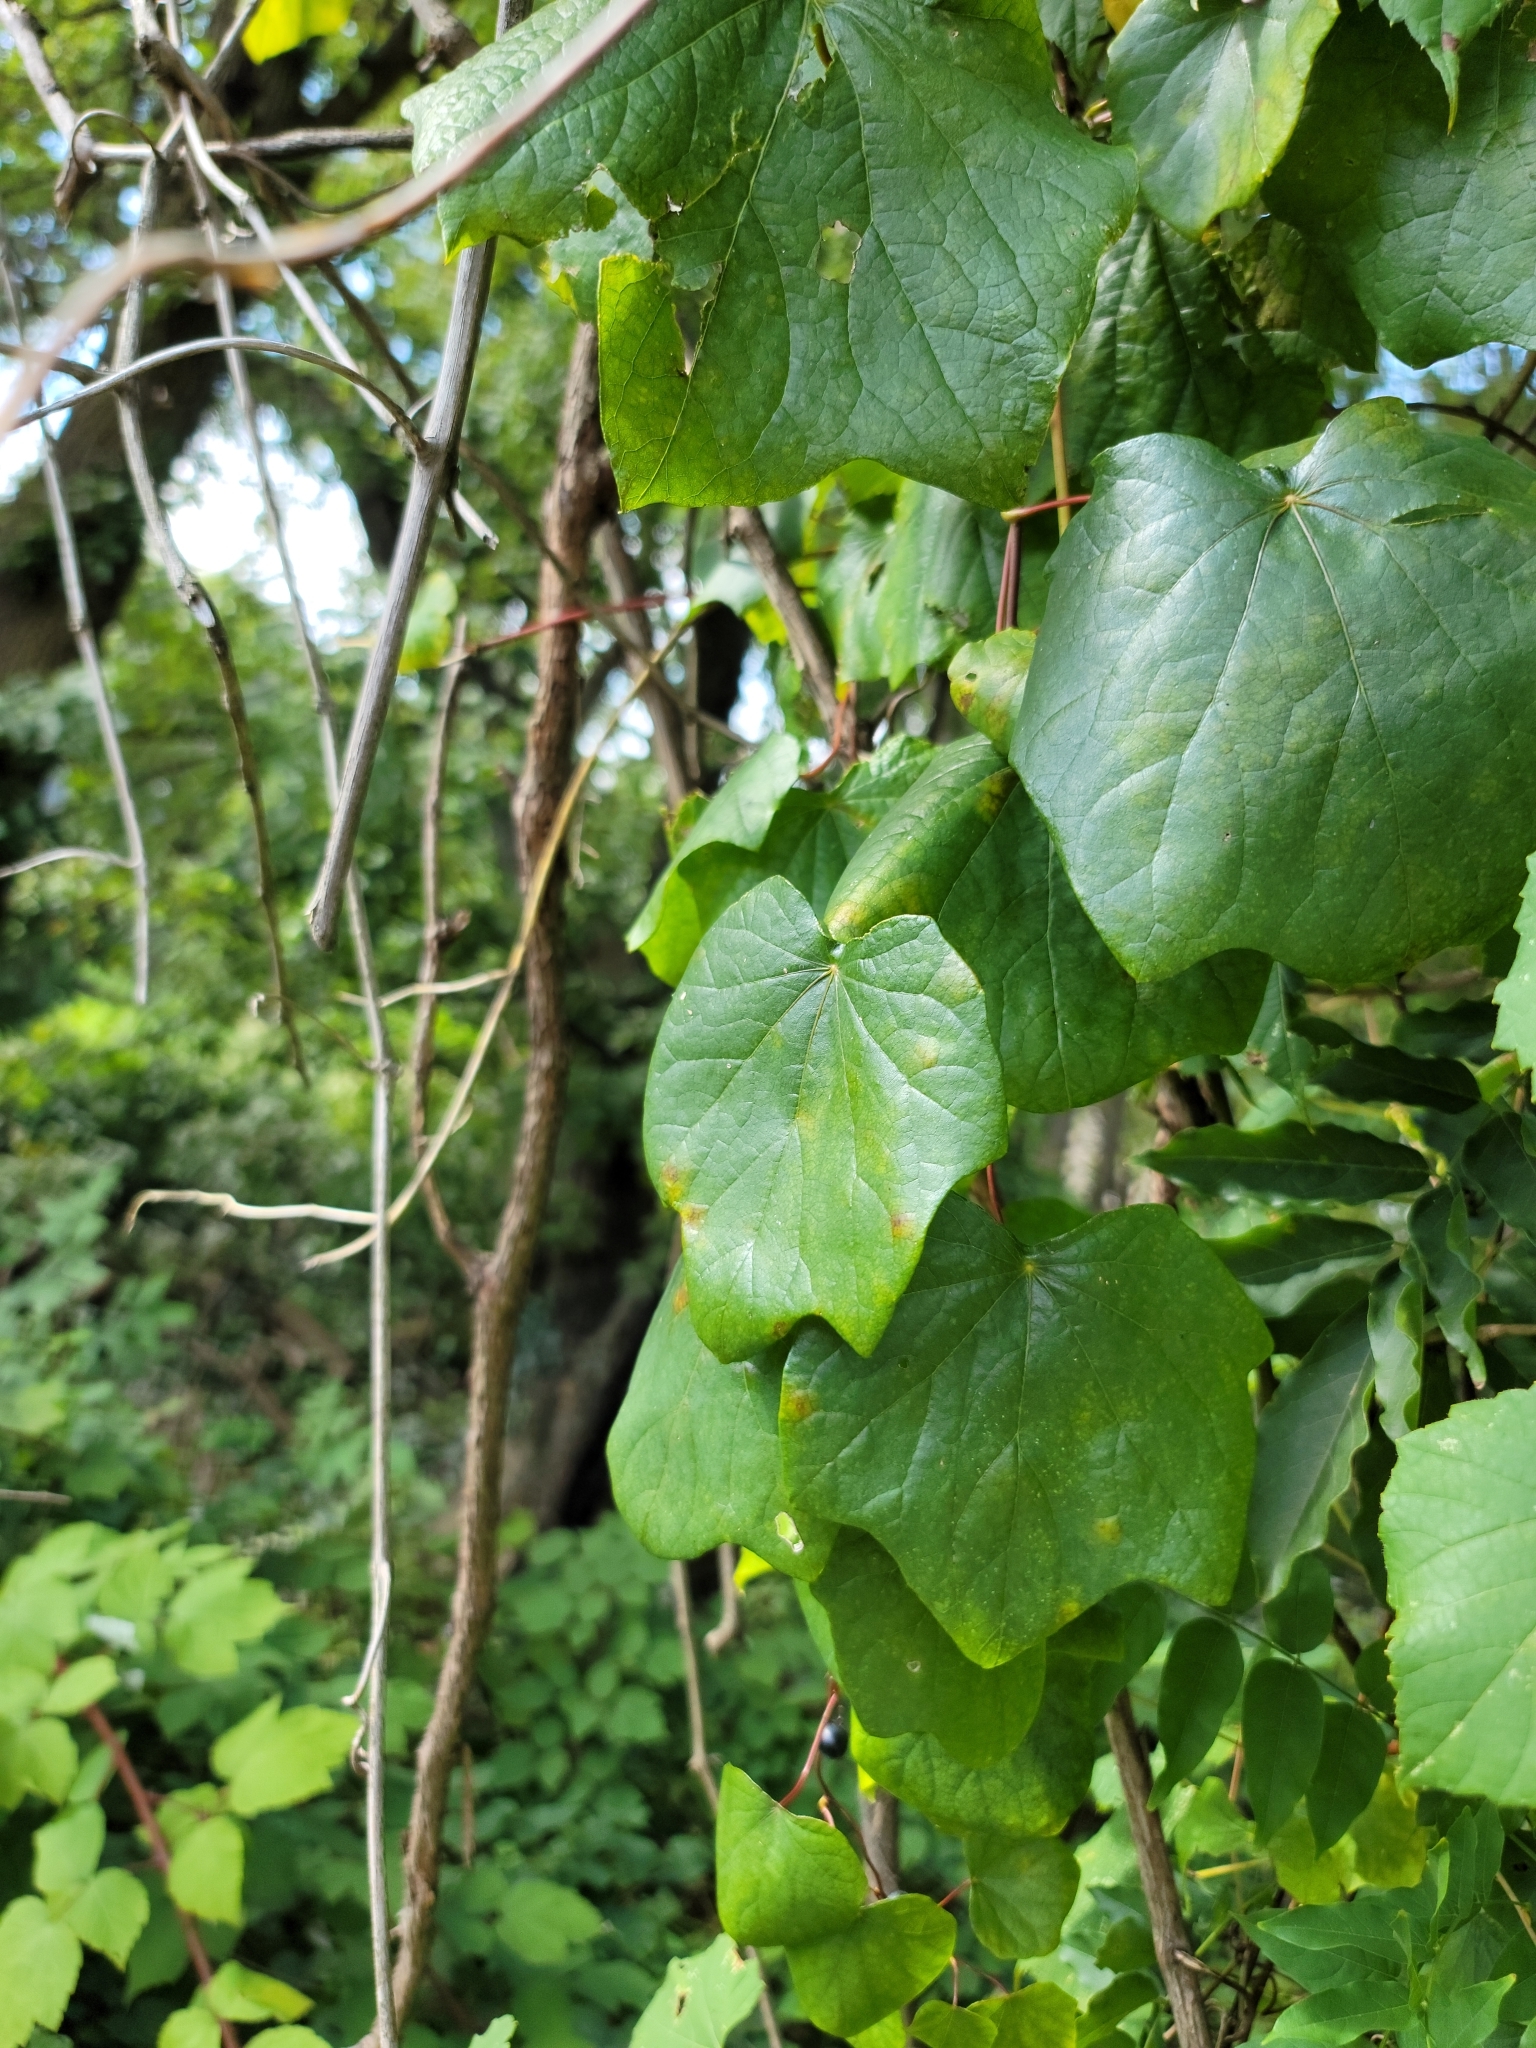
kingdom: Plantae
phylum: Tracheophyta
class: Magnoliopsida
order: Ranunculales
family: Menispermaceae
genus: Menispermum
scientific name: Menispermum canadense
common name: Moonseed
